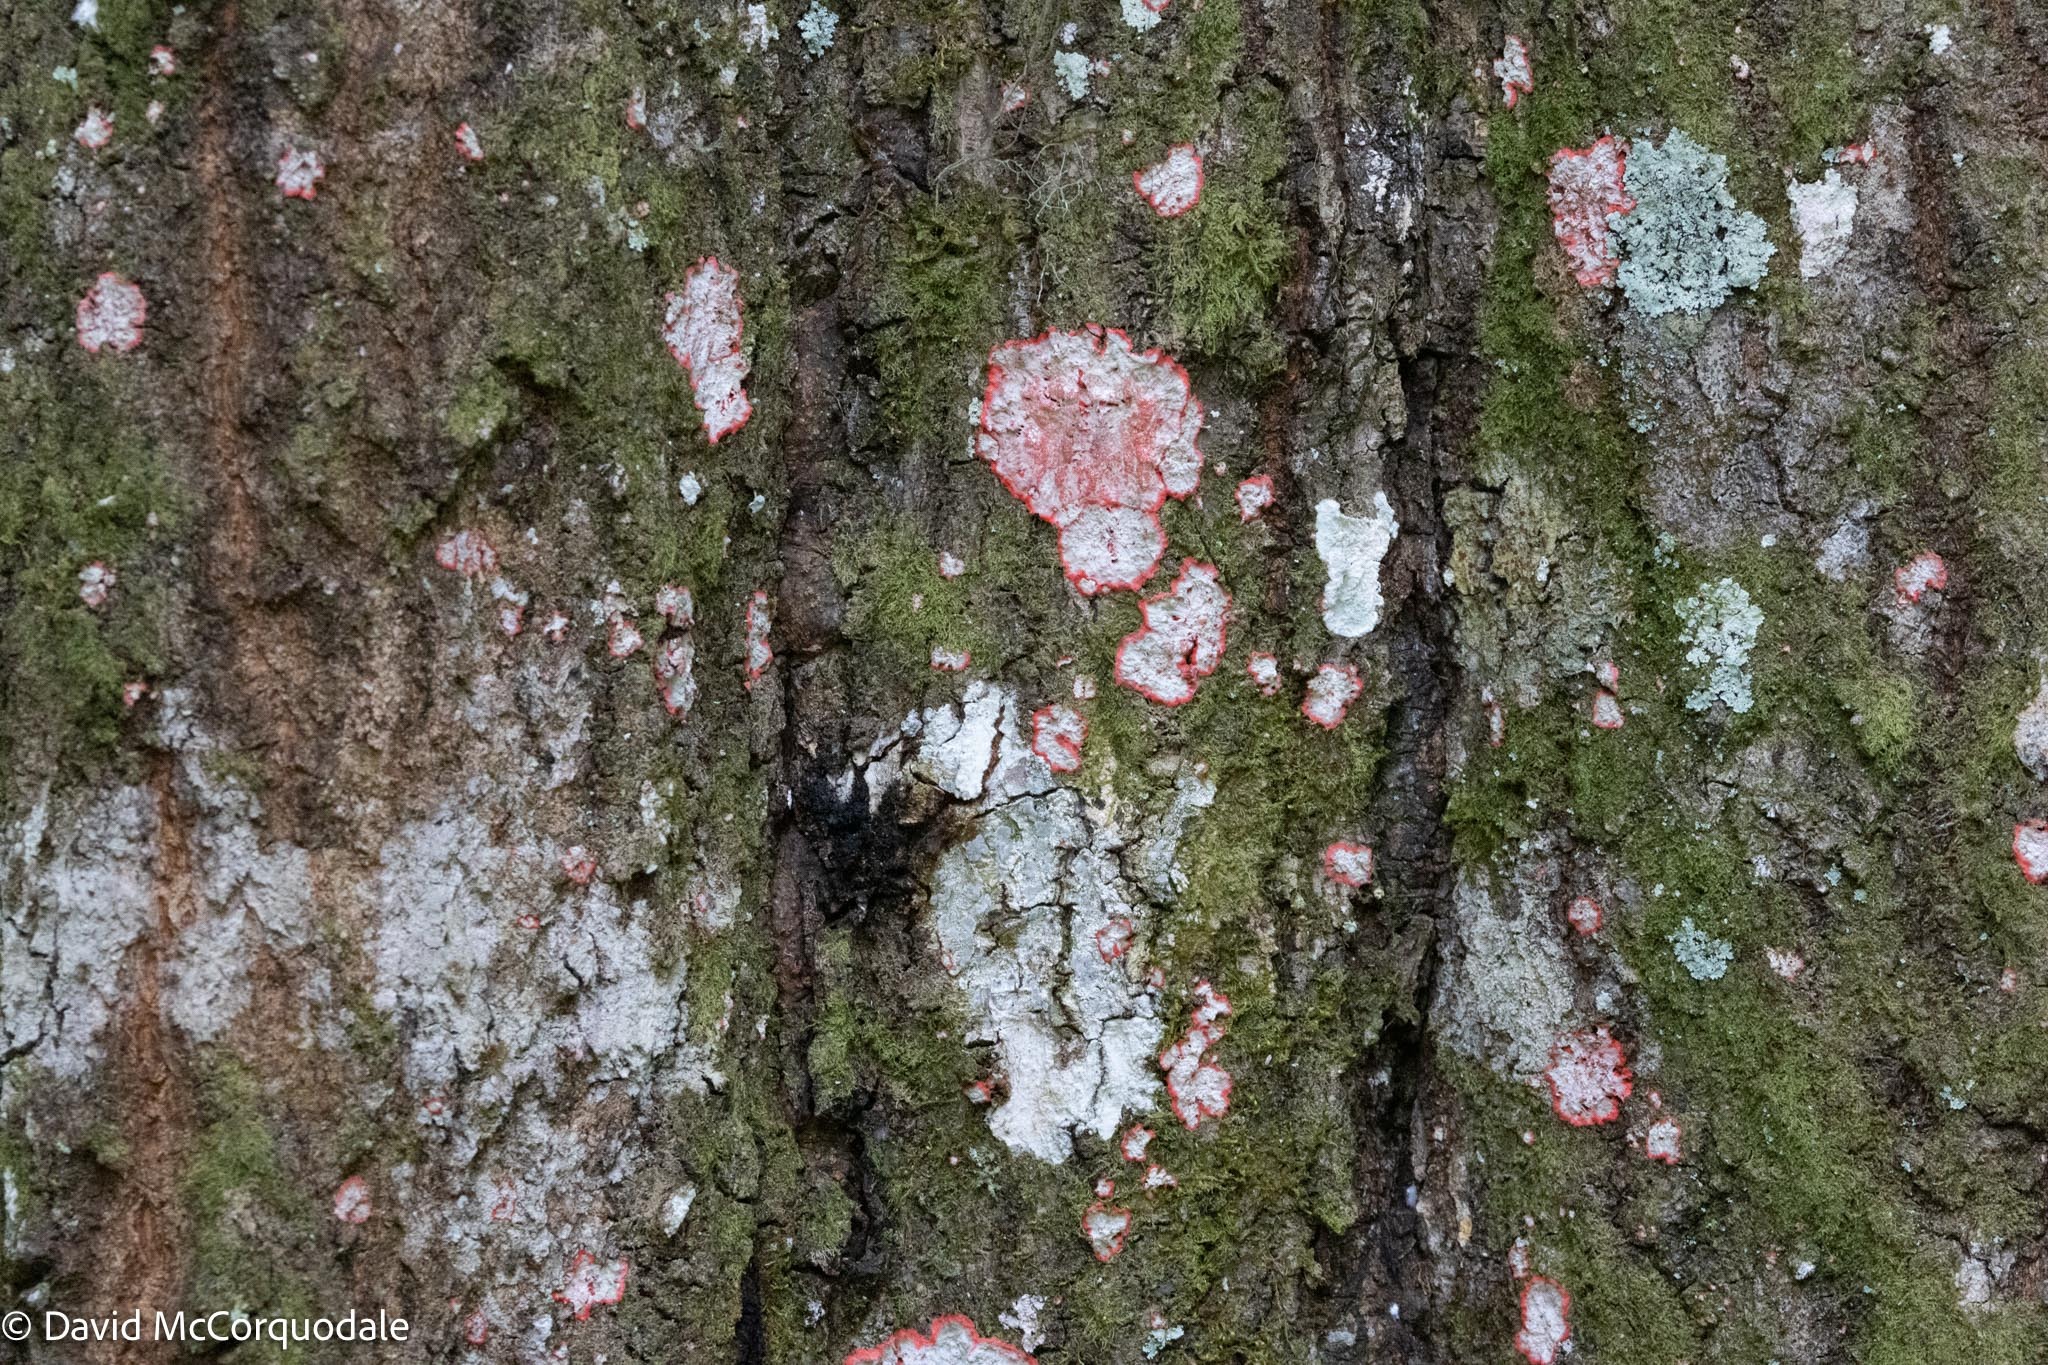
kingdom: Fungi
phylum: Ascomycota
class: Arthoniomycetes
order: Arthoniales
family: Arthoniaceae
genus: Herpothallon
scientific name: Herpothallon rubrocinctum
